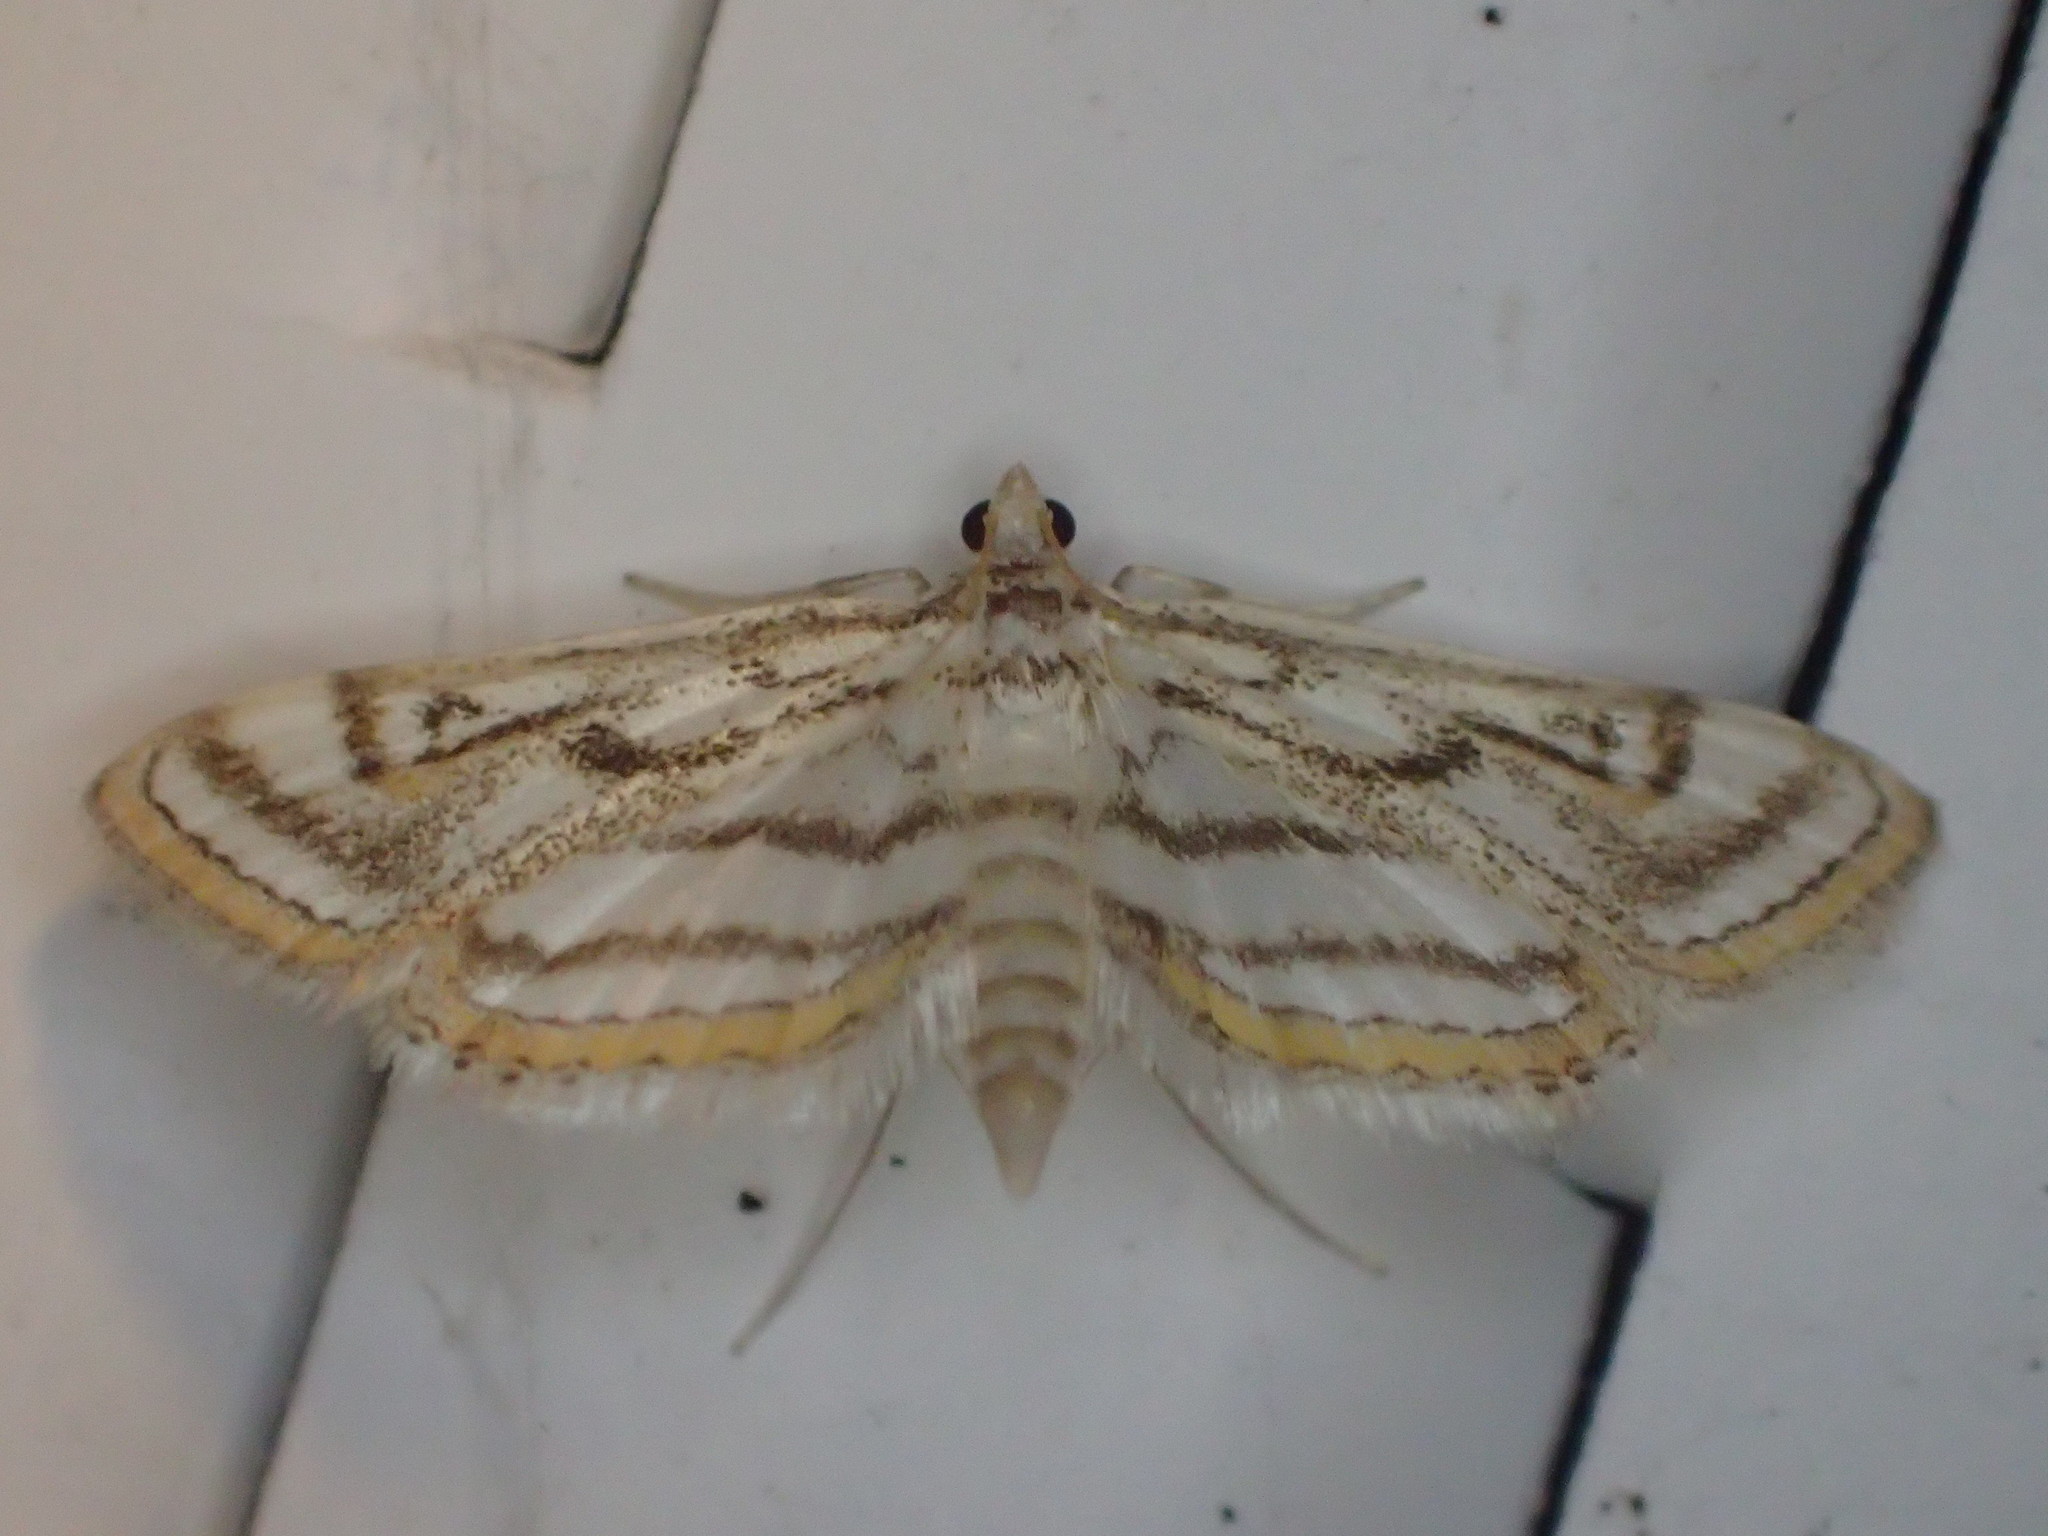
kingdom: Animalia
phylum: Arthropoda
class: Insecta
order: Lepidoptera
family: Crambidae
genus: Parapoynx
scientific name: Parapoynx badiusalis
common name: Chestnut-marked pondweed moth
